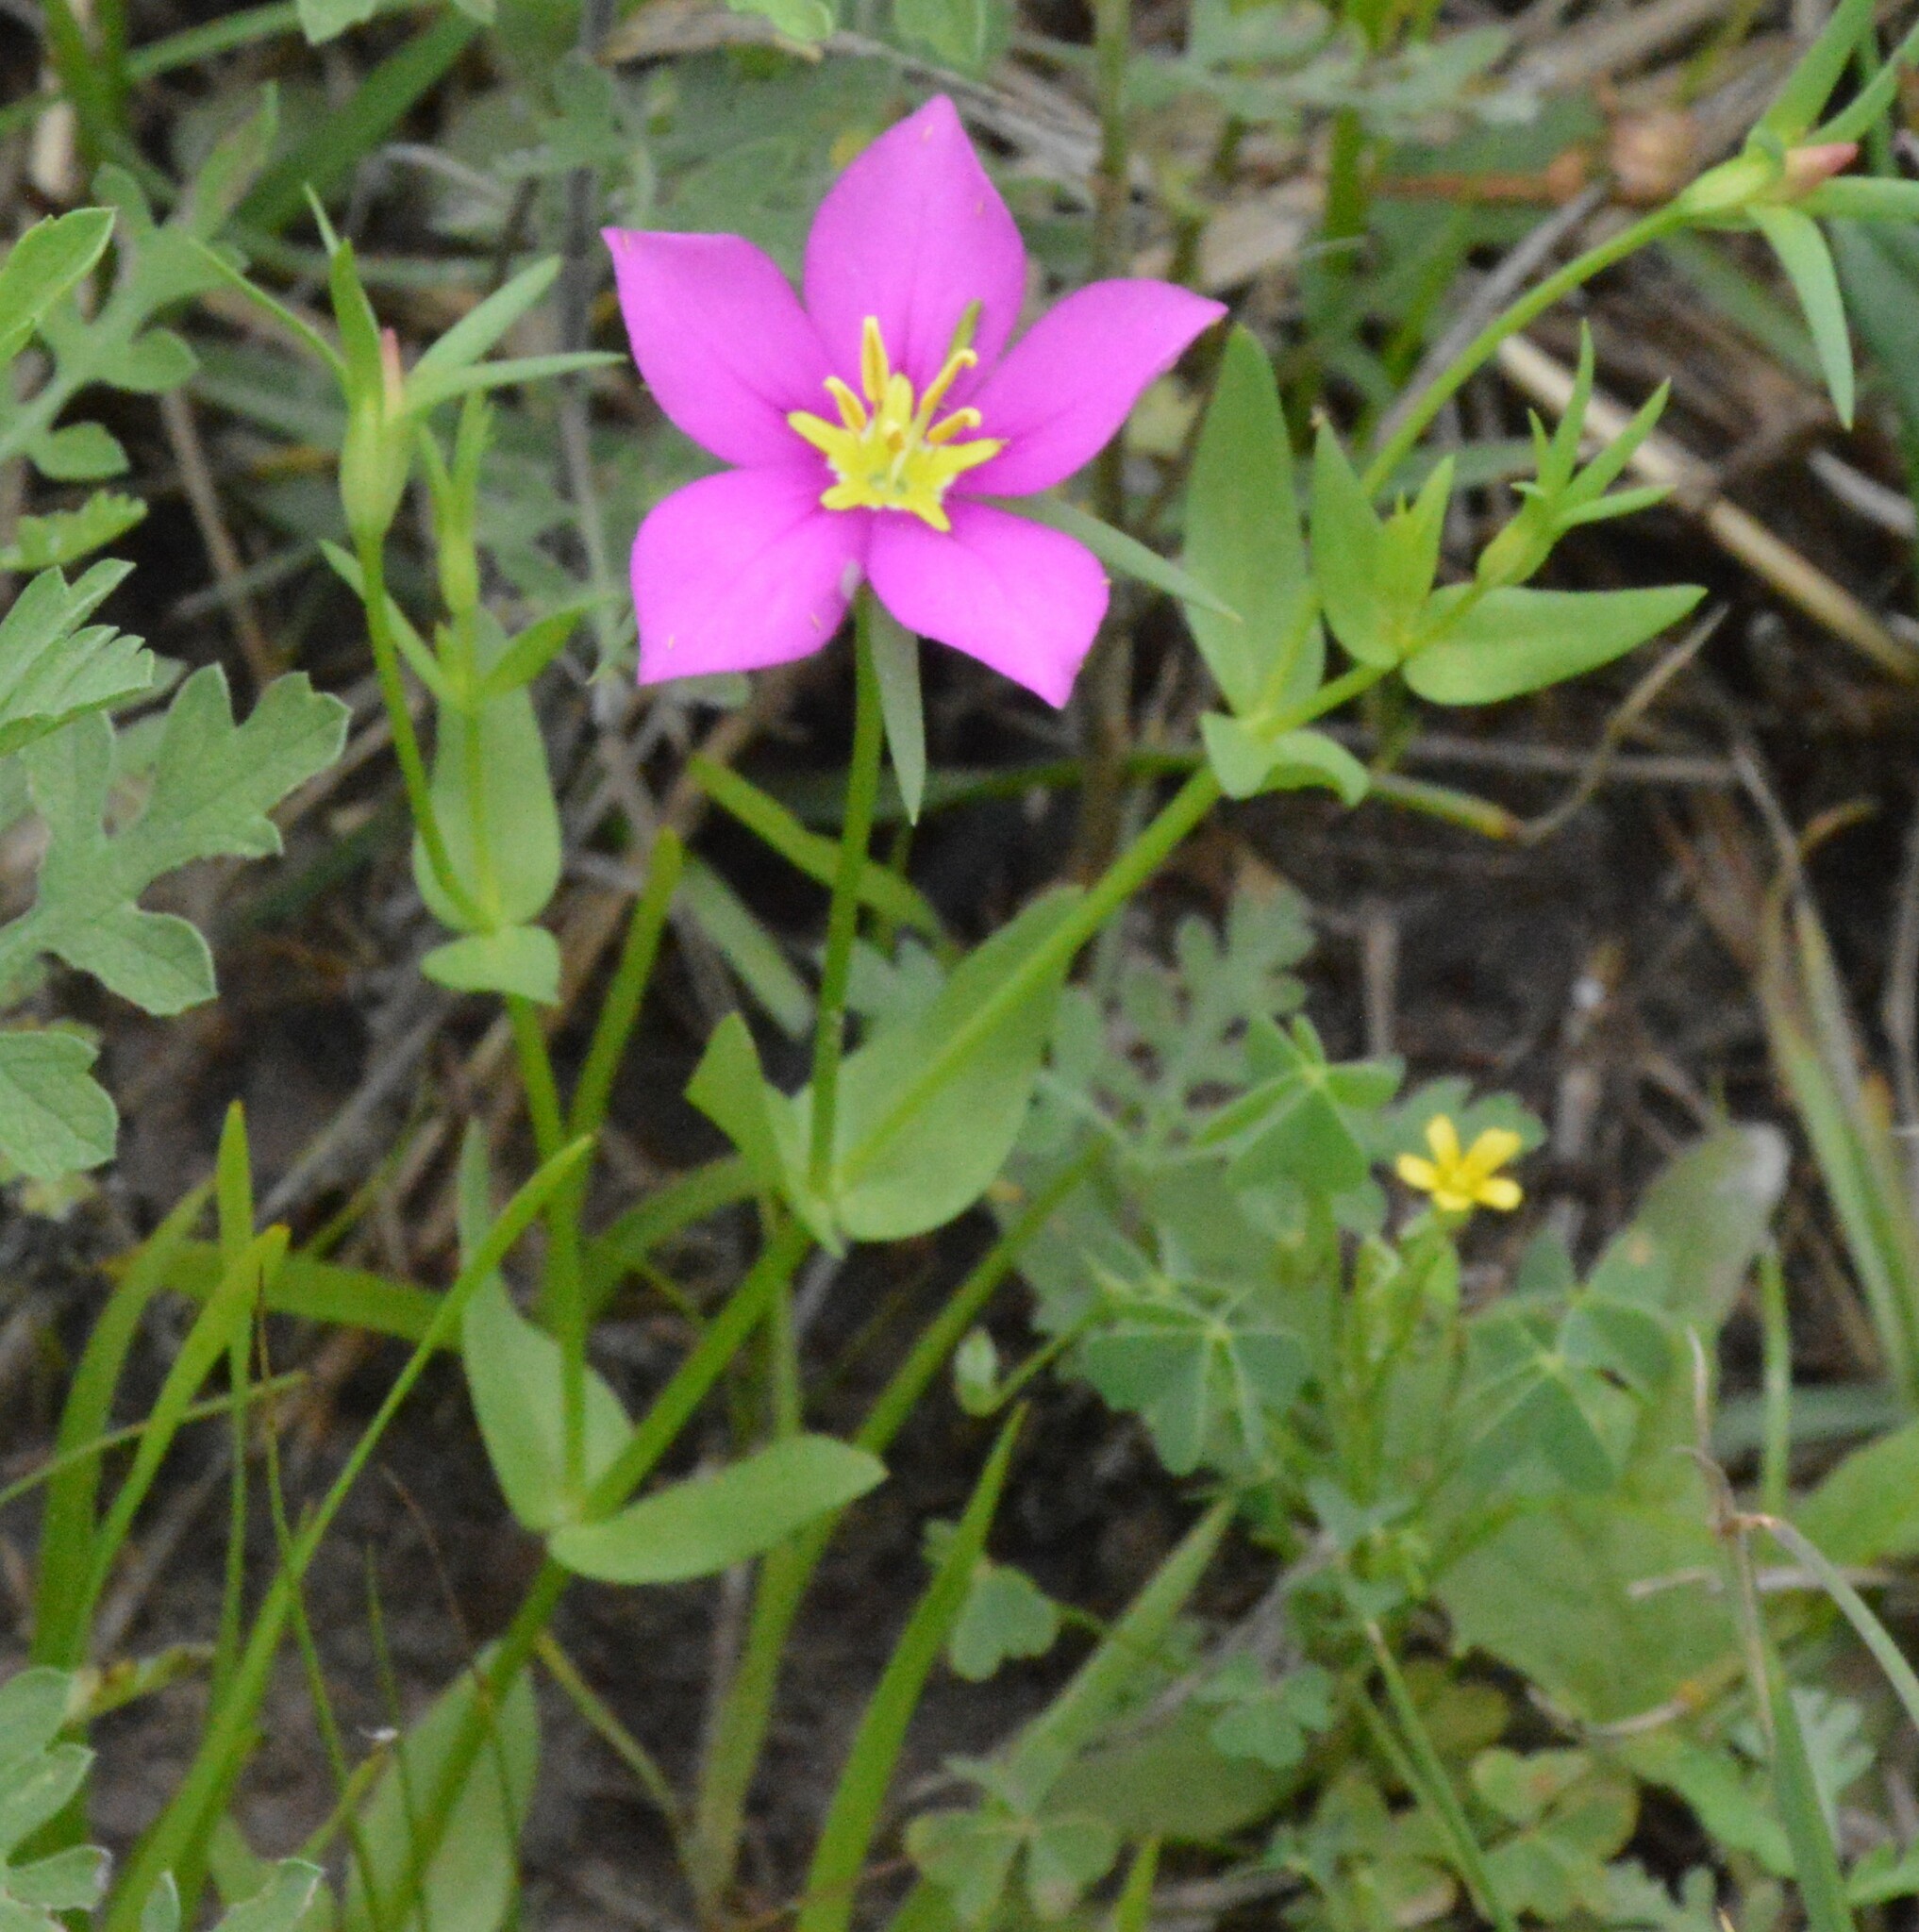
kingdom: Plantae
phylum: Tracheophyta
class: Magnoliopsida
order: Gentianales
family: Gentianaceae
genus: Sabatia
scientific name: Sabatia campestris
